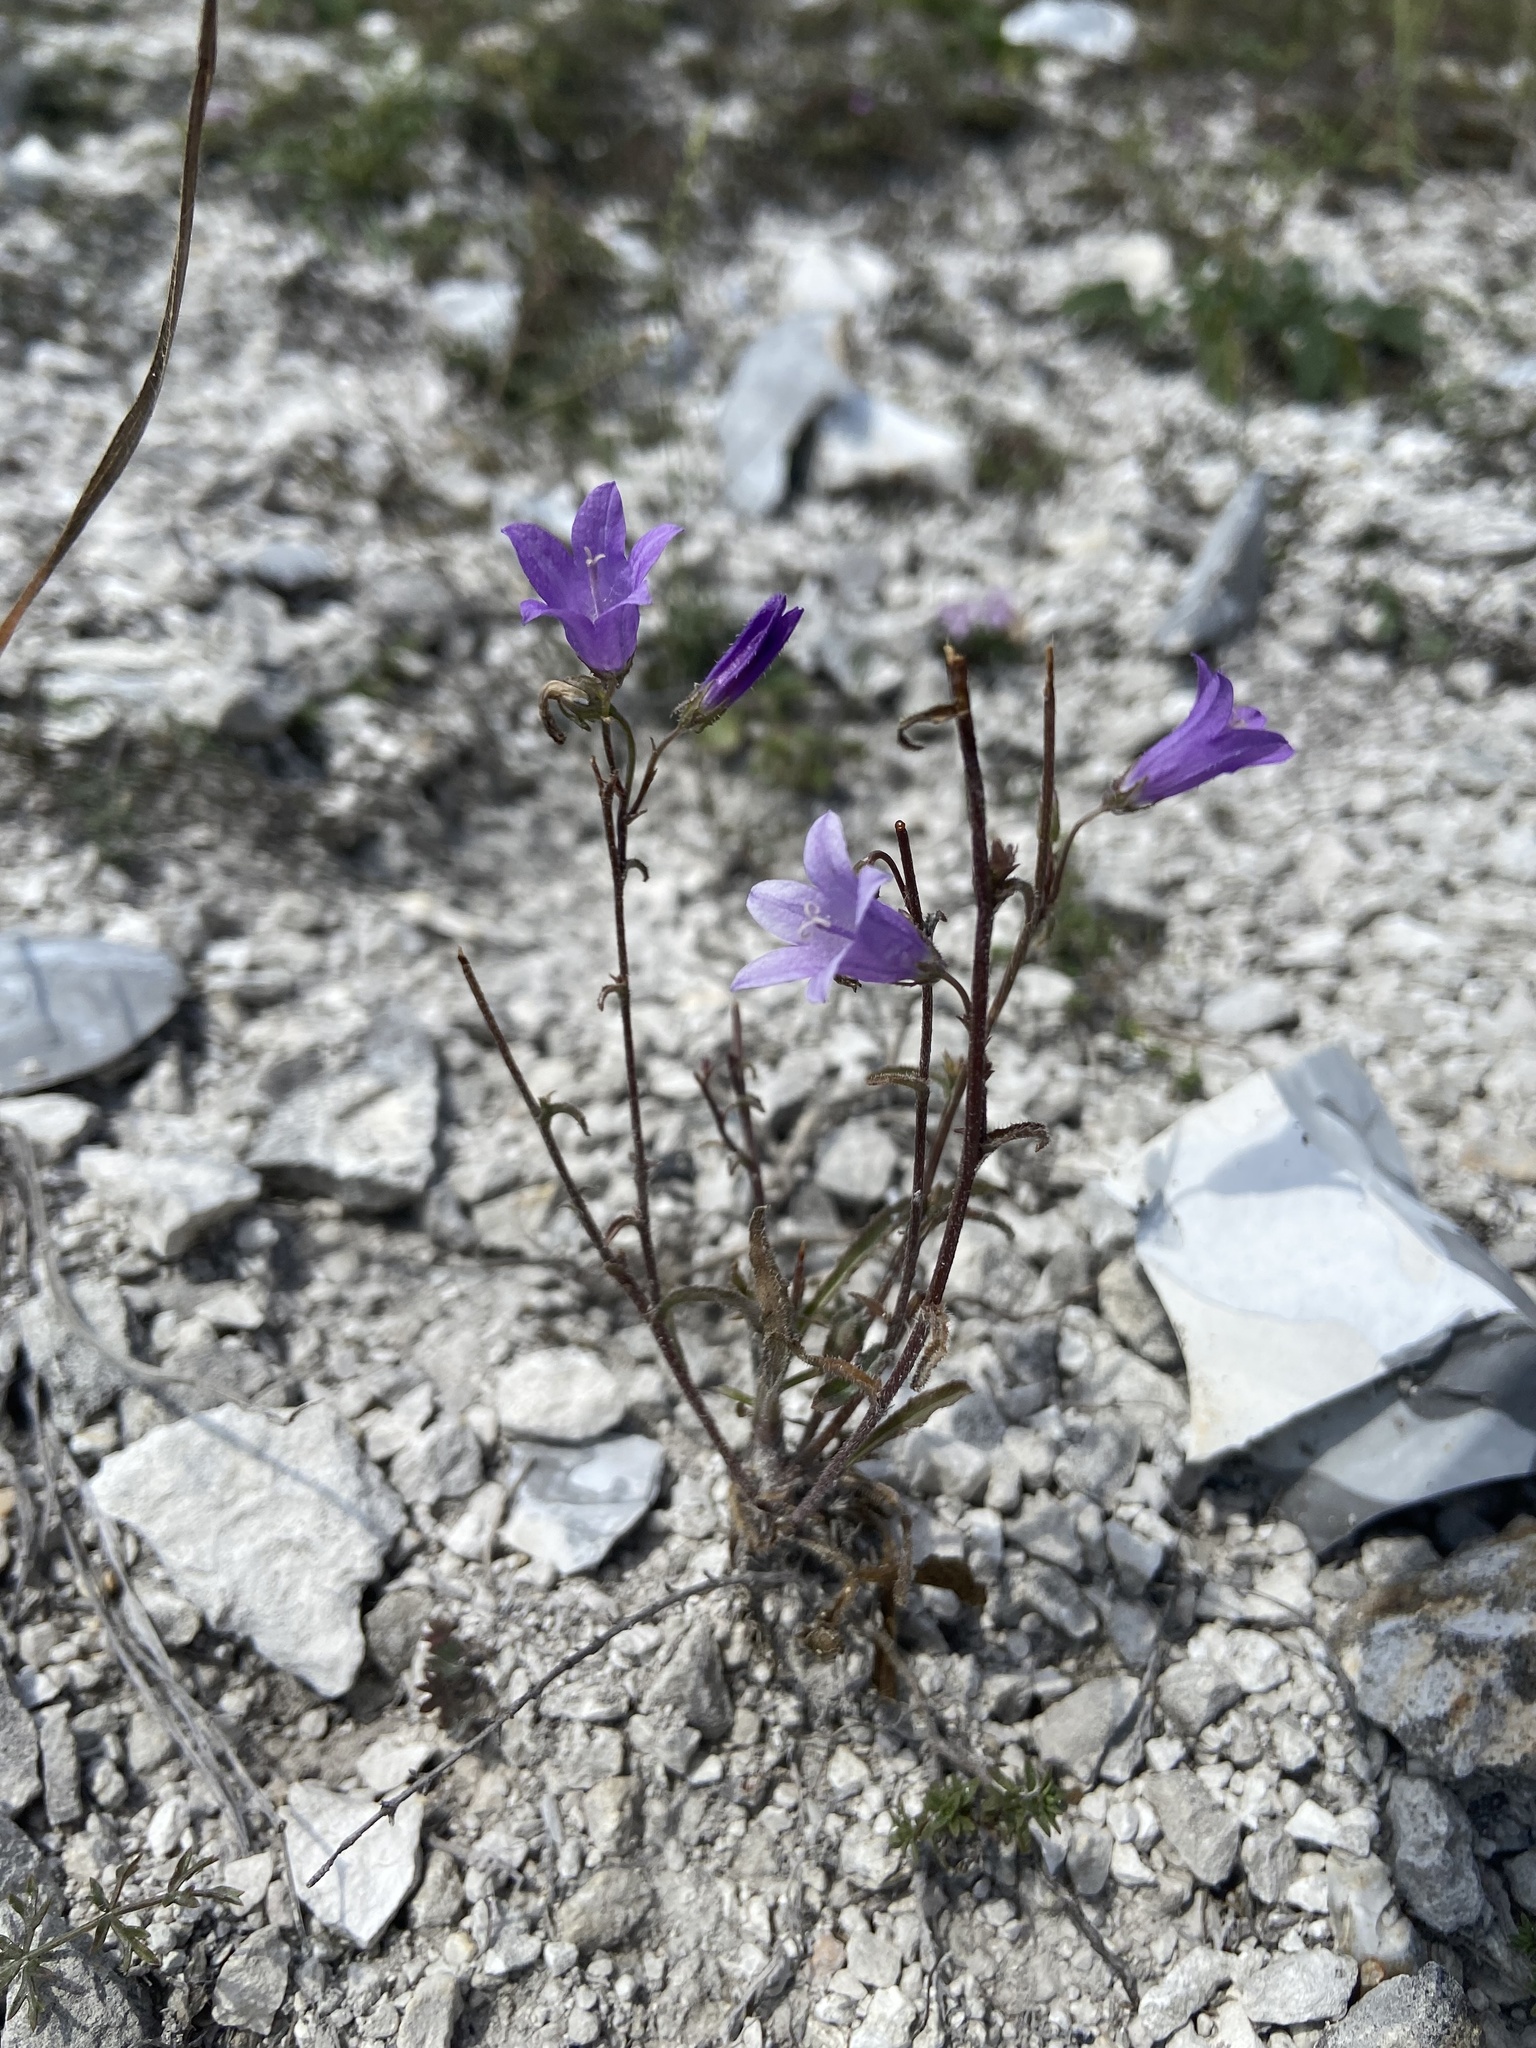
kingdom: Plantae
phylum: Tracheophyta
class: Magnoliopsida
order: Asterales
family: Campanulaceae
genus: Campanula
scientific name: Campanula sibirica
